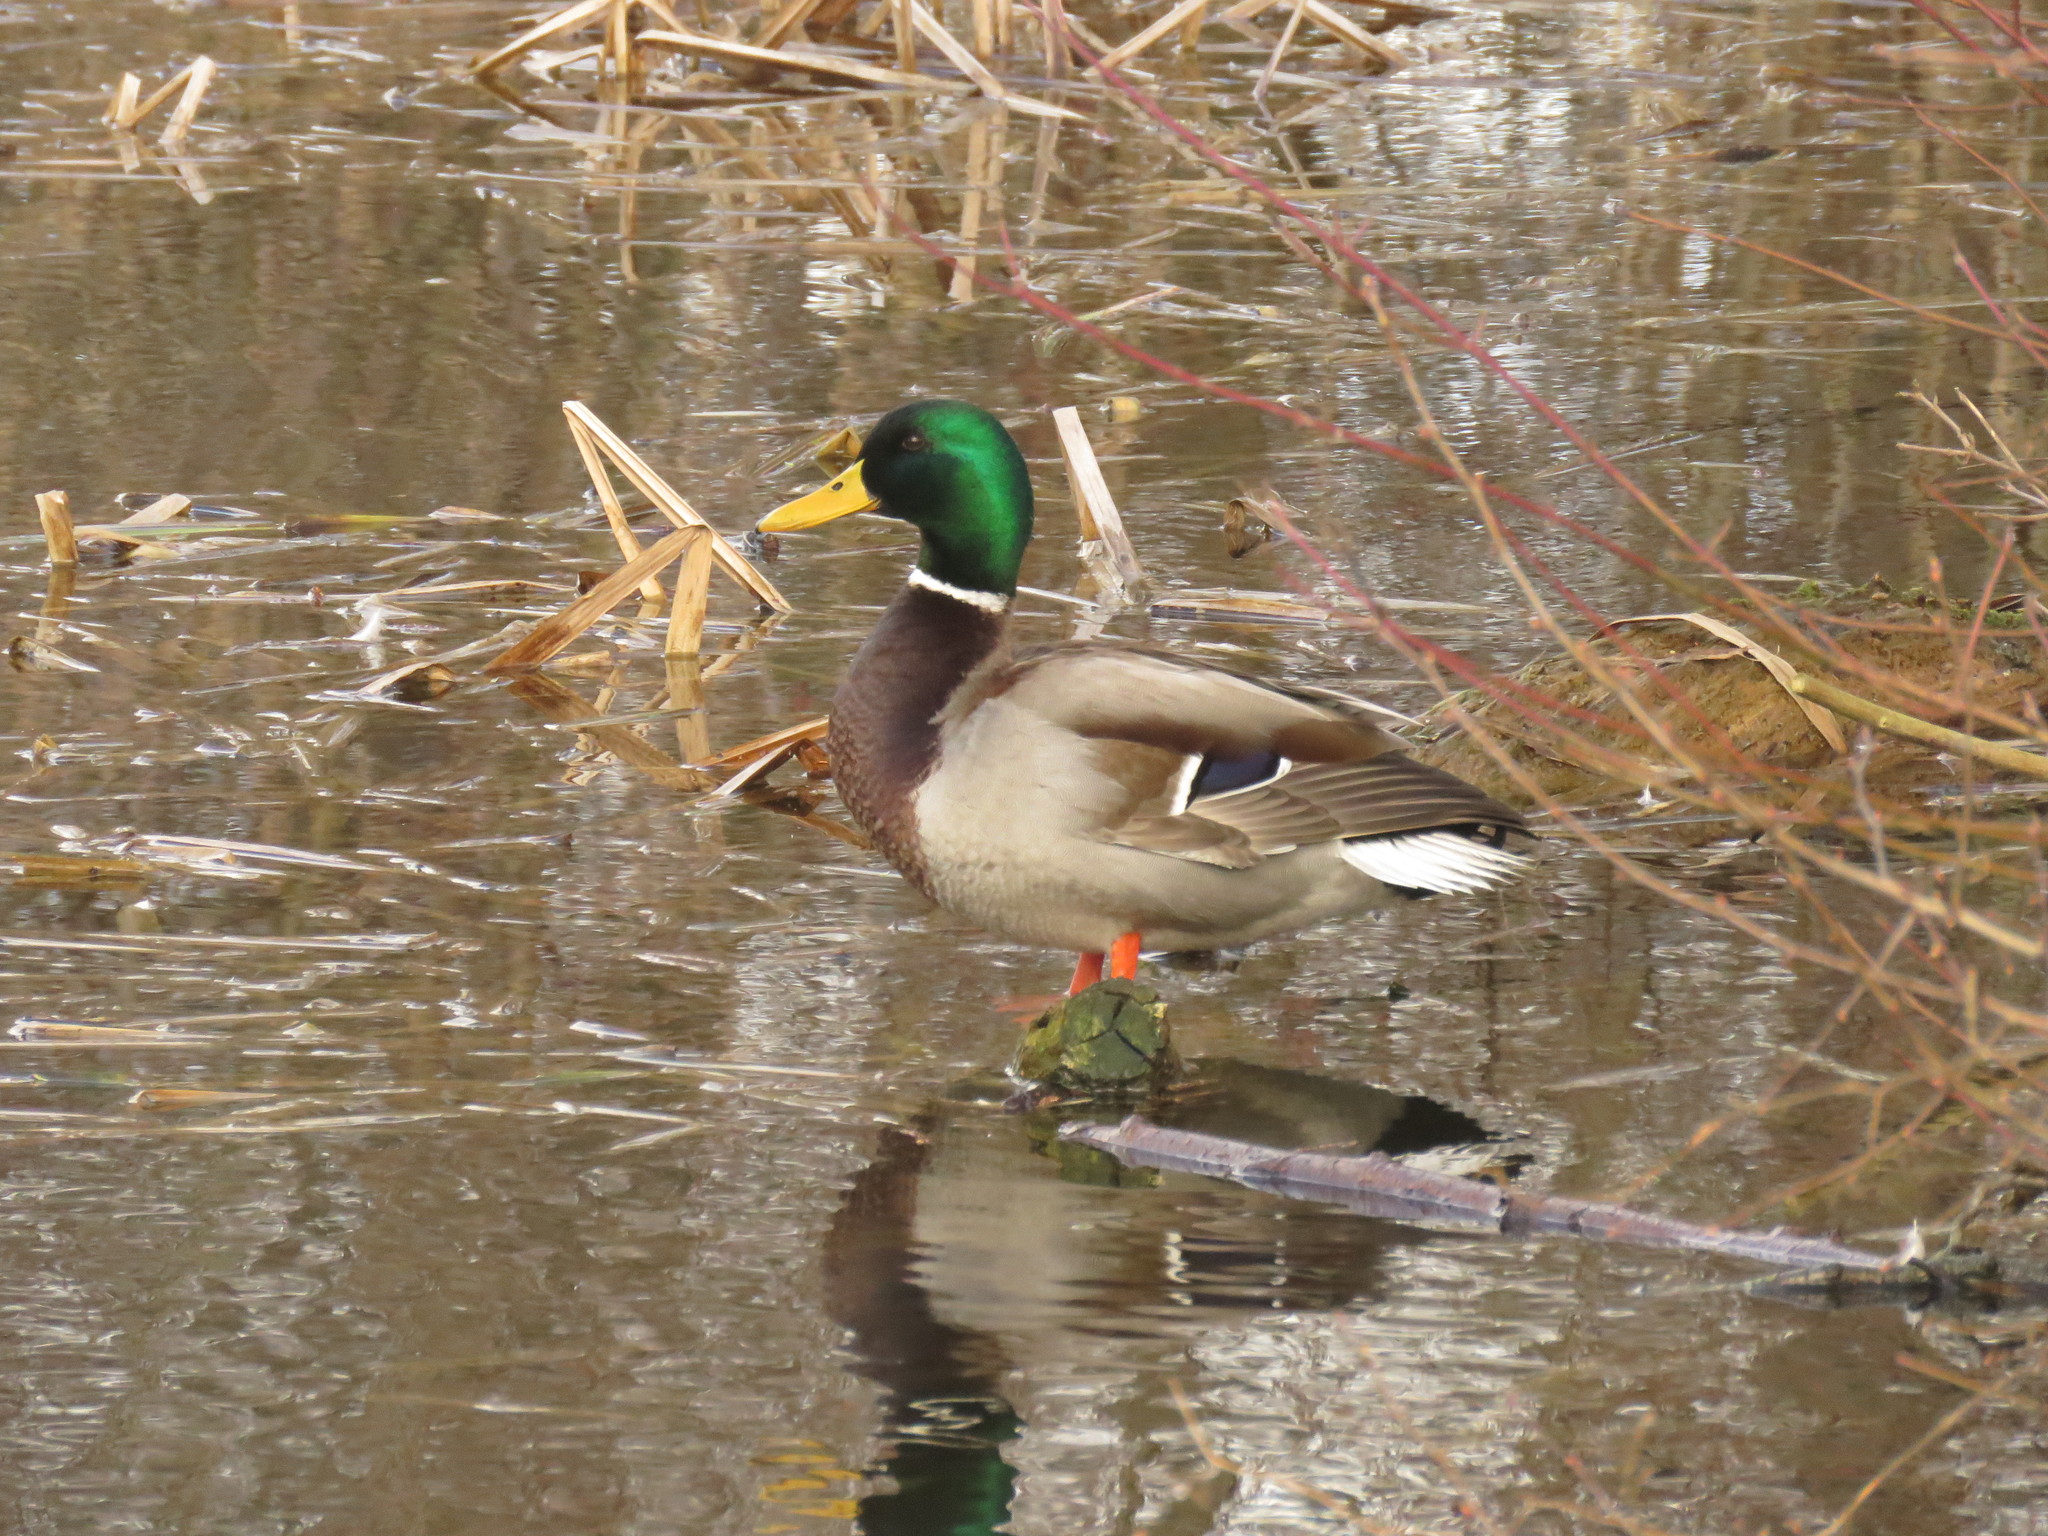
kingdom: Animalia
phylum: Chordata
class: Aves
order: Anseriformes
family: Anatidae
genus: Anas
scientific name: Anas platyrhynchos
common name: Mallard
